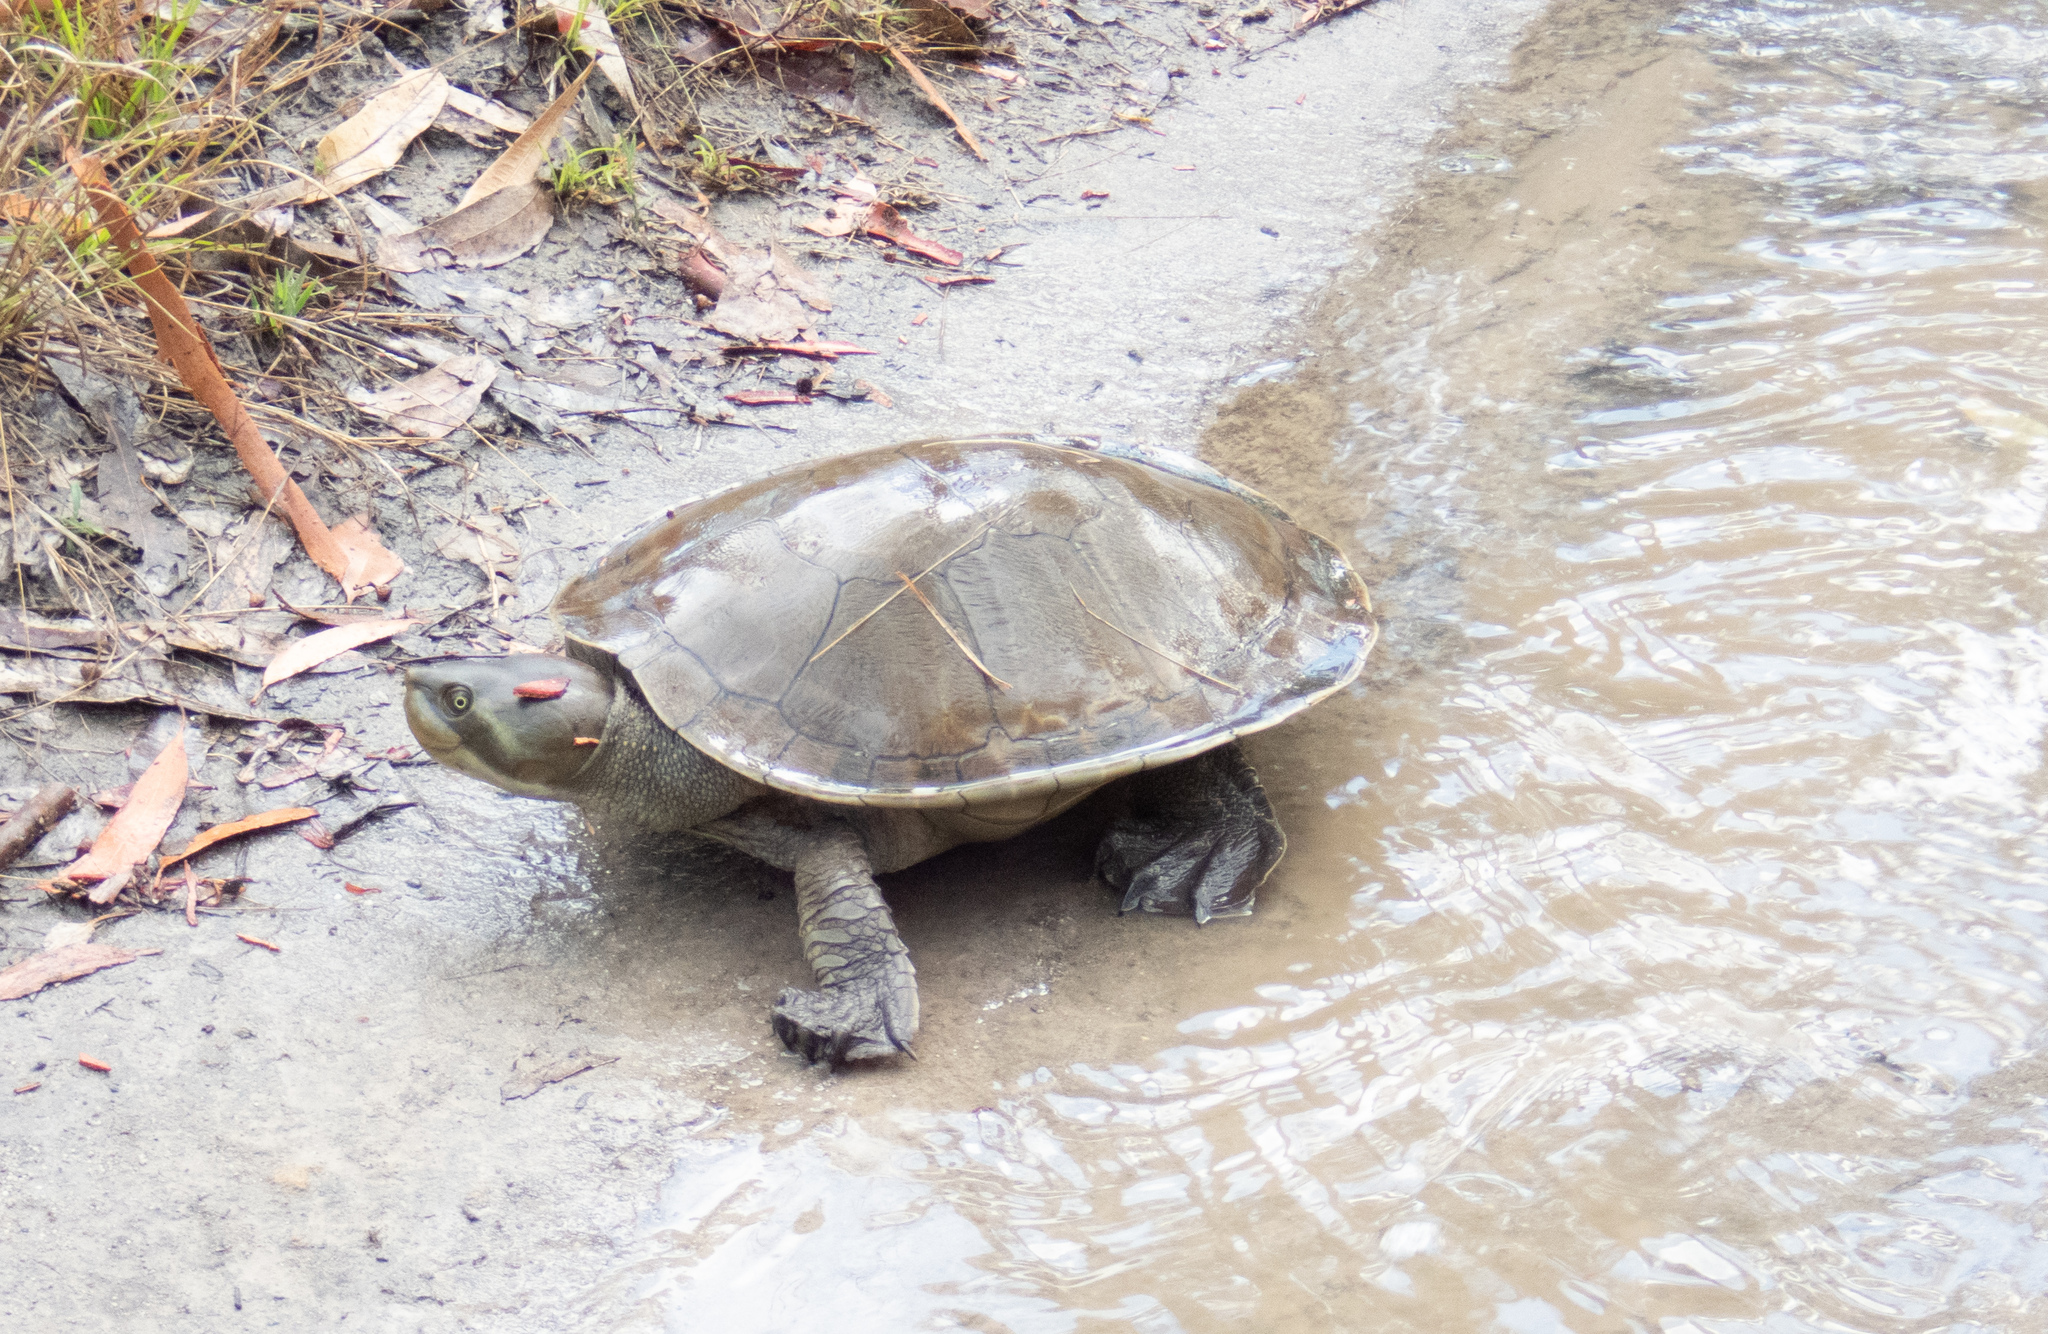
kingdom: Animalia
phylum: Chordata
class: Testudines
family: Chelidae
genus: Emydura
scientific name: Emydura macquarii
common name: Murray river turtle
